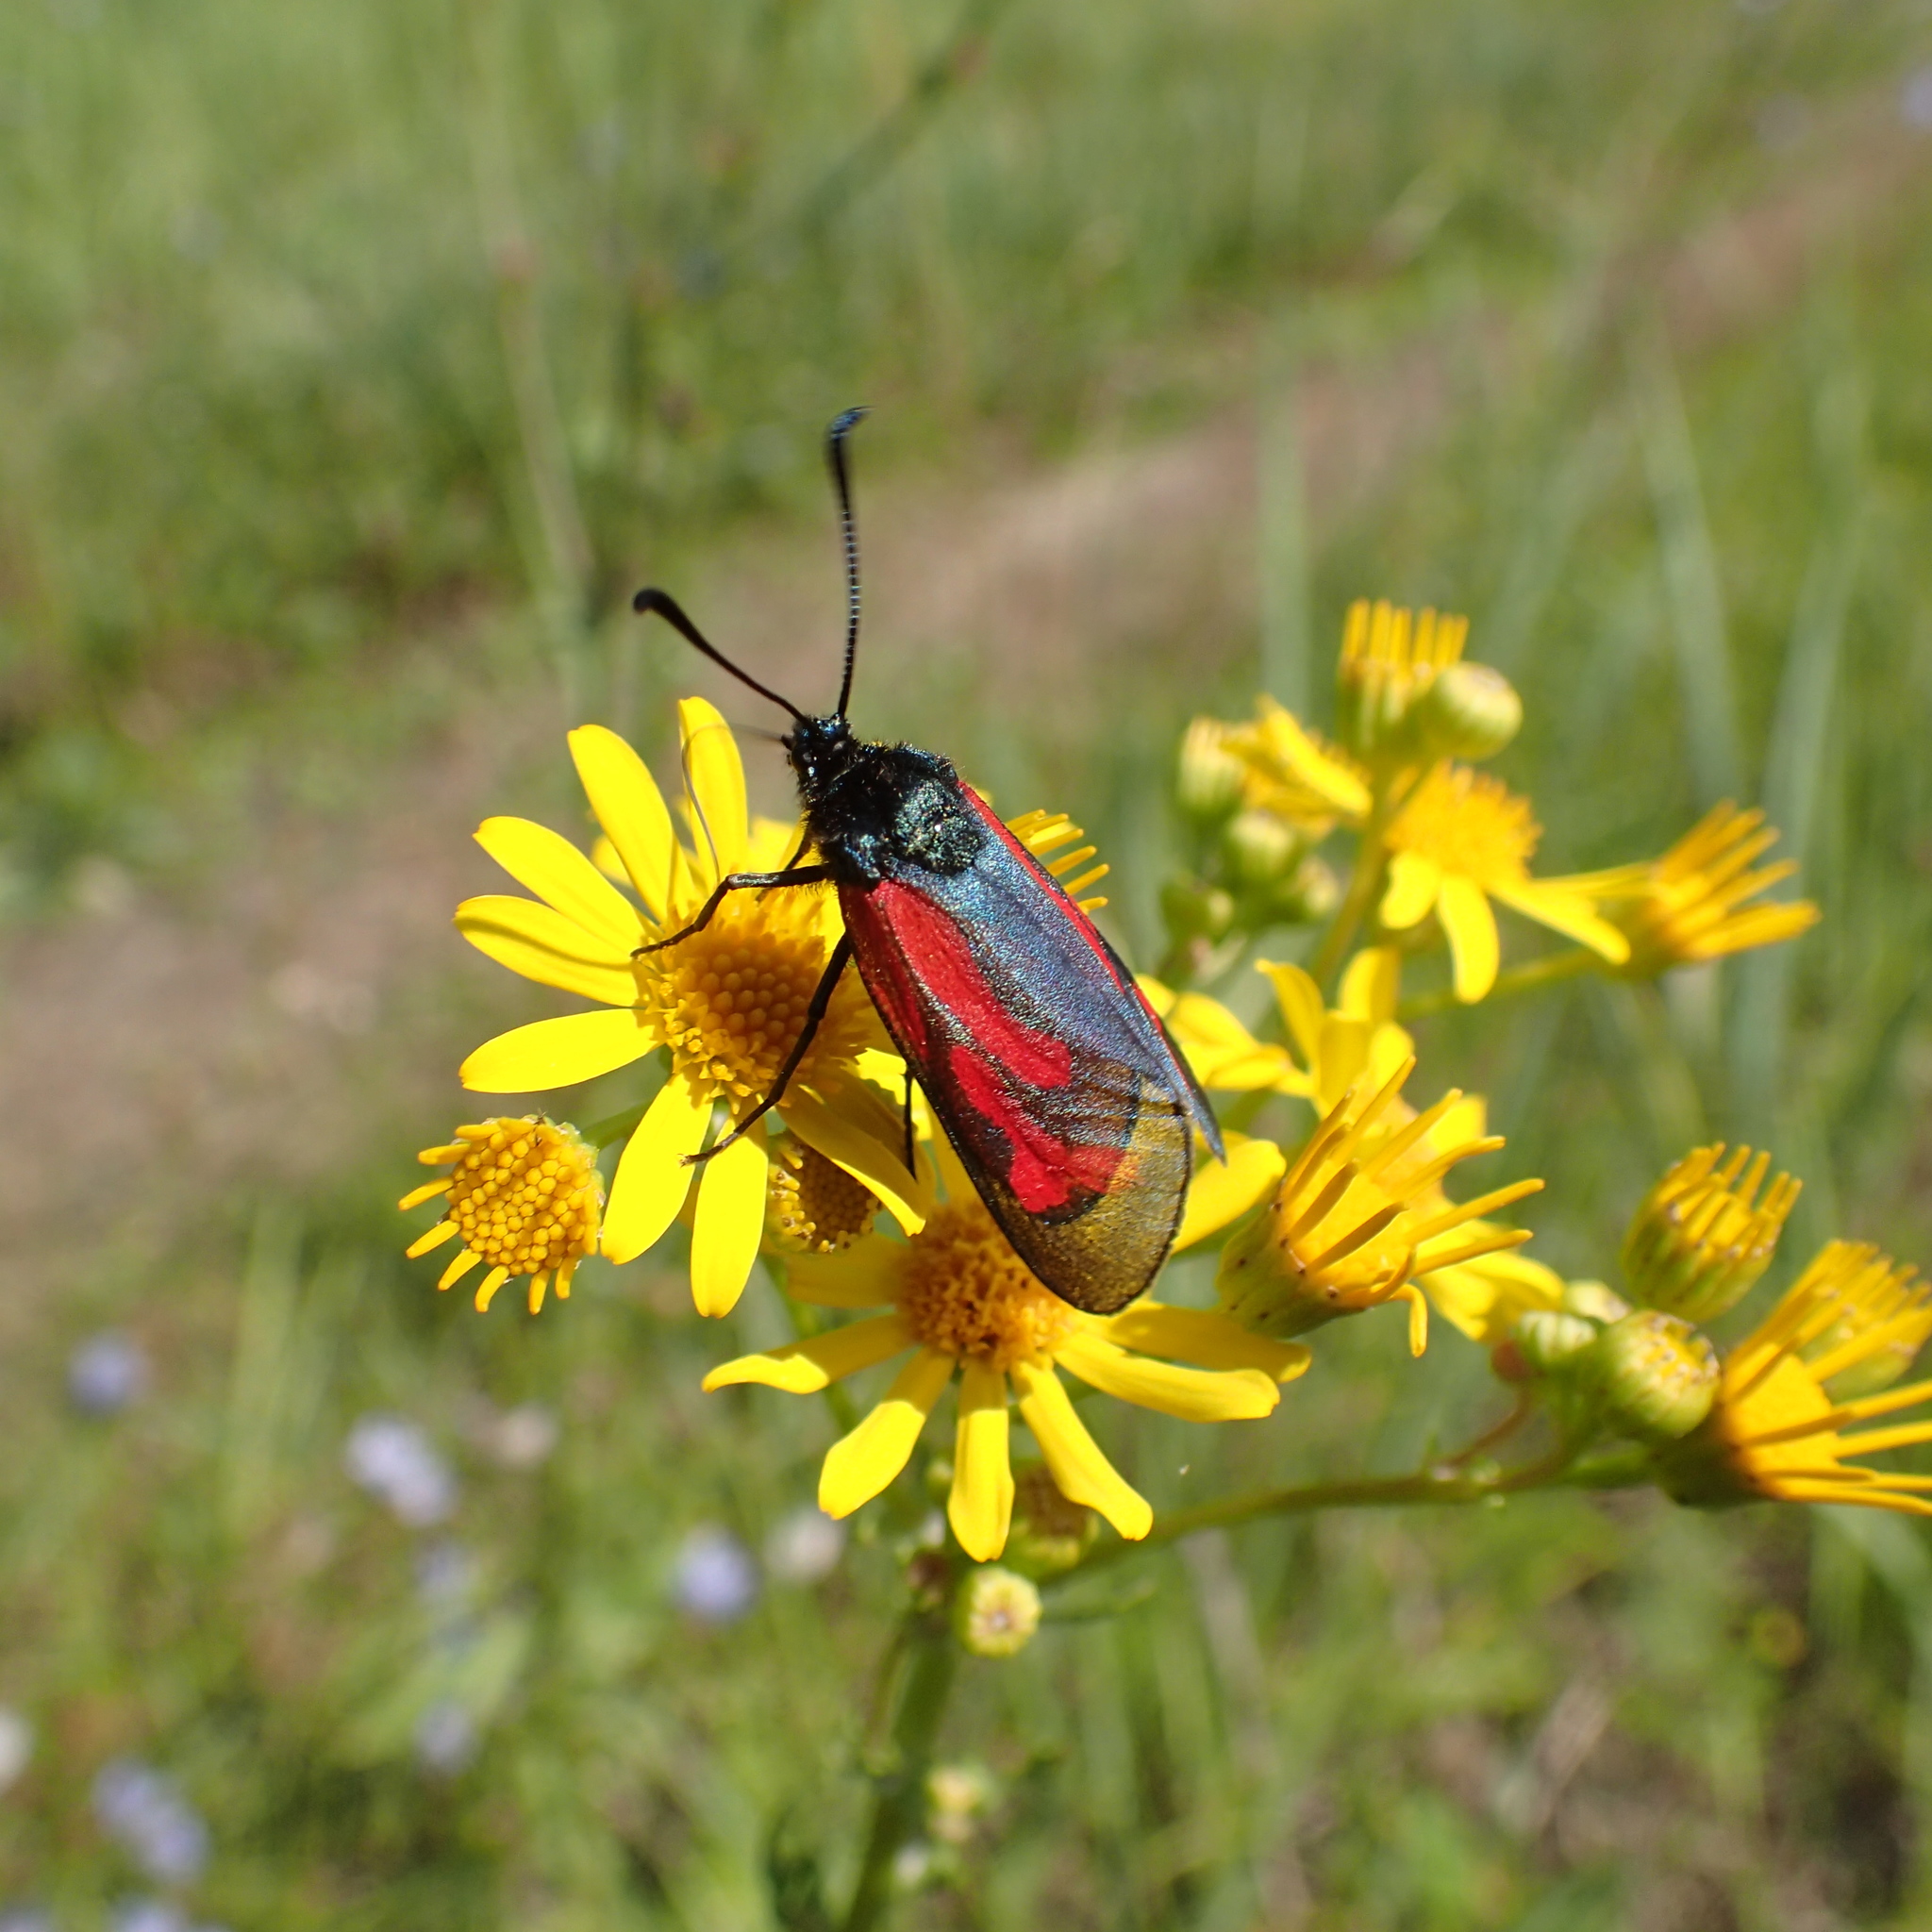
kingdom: Animalia
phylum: Arthropoda
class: Insecta
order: Lepidoptera
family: Zygaenidae
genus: Zygaena
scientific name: Zygaena minos
